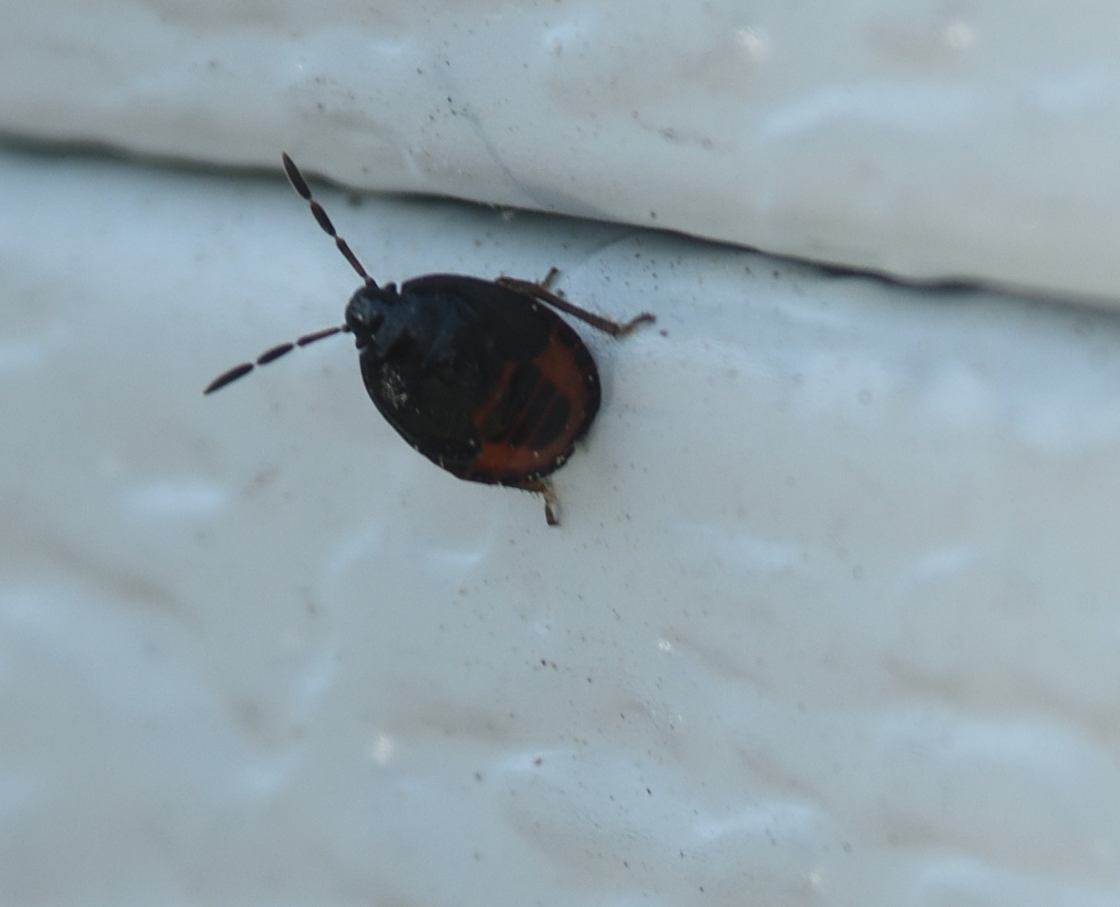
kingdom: Animalia
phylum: Arthropoda
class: Insecta
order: Hemiptera
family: Cydnidae
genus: Sehirus
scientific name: Sehirus cinctus
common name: White-margined burrower bug
